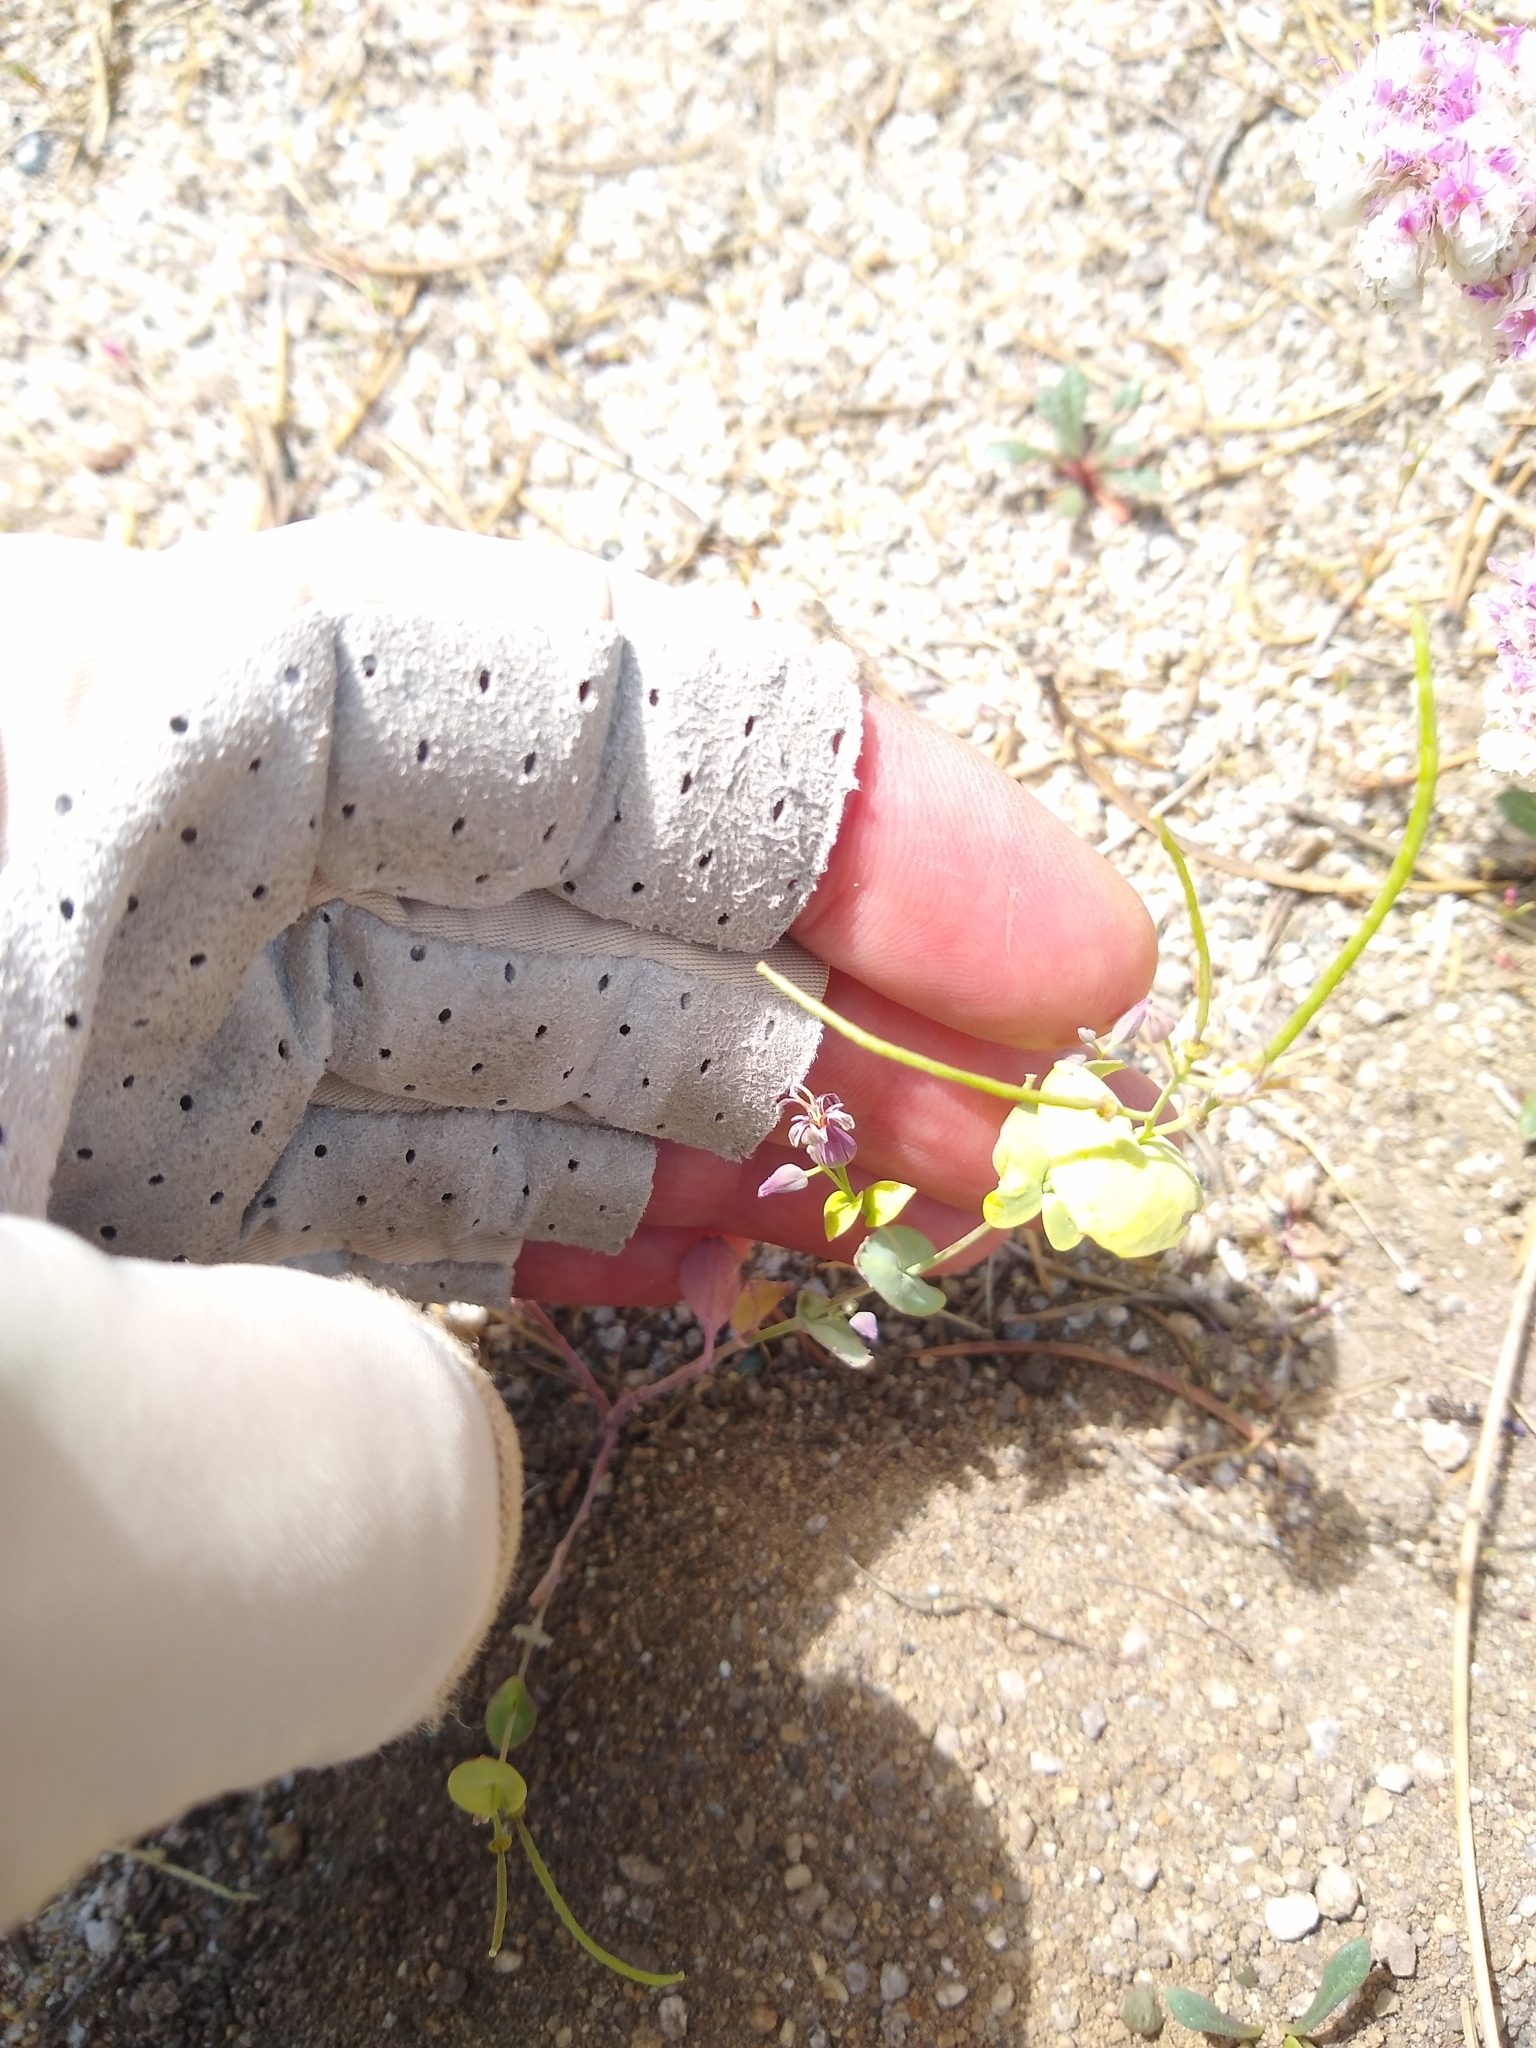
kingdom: Plantae
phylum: Tracheophyta
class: Magnoliopsida
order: Brassicales
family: Brassicaceae
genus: Streptanthus
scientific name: Streptanthus tortuosus
